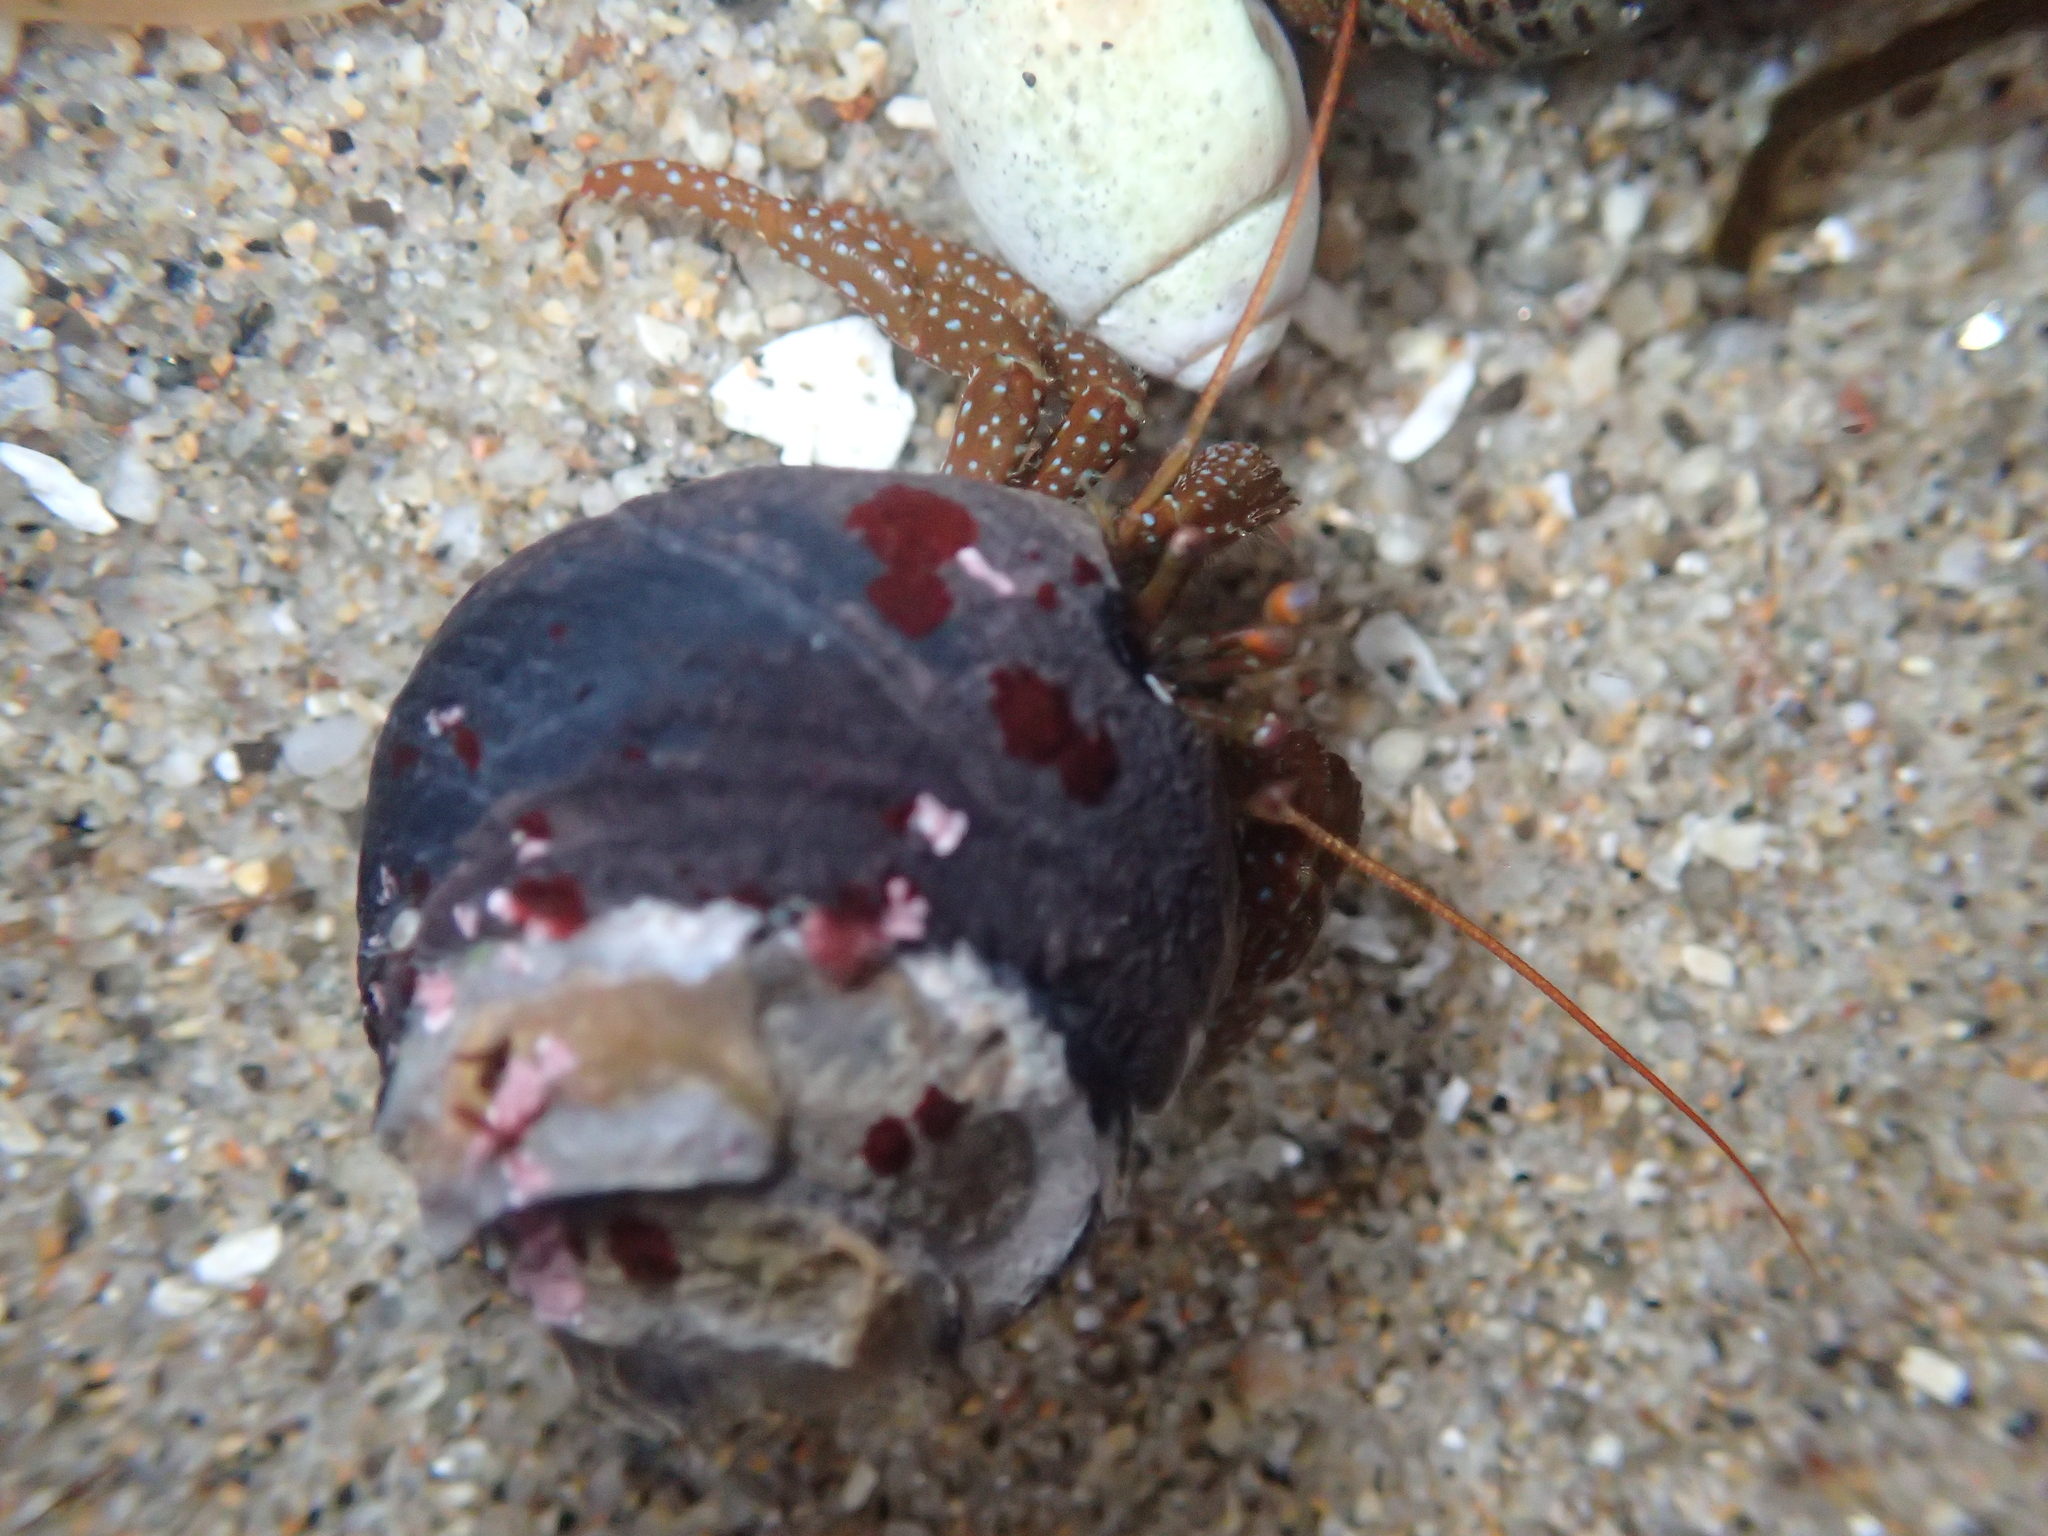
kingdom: Animalia
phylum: Arthropoda
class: Malacostraca
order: Decapoda
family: Paguridae
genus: Pagurus
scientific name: Pagurus granosimanus
